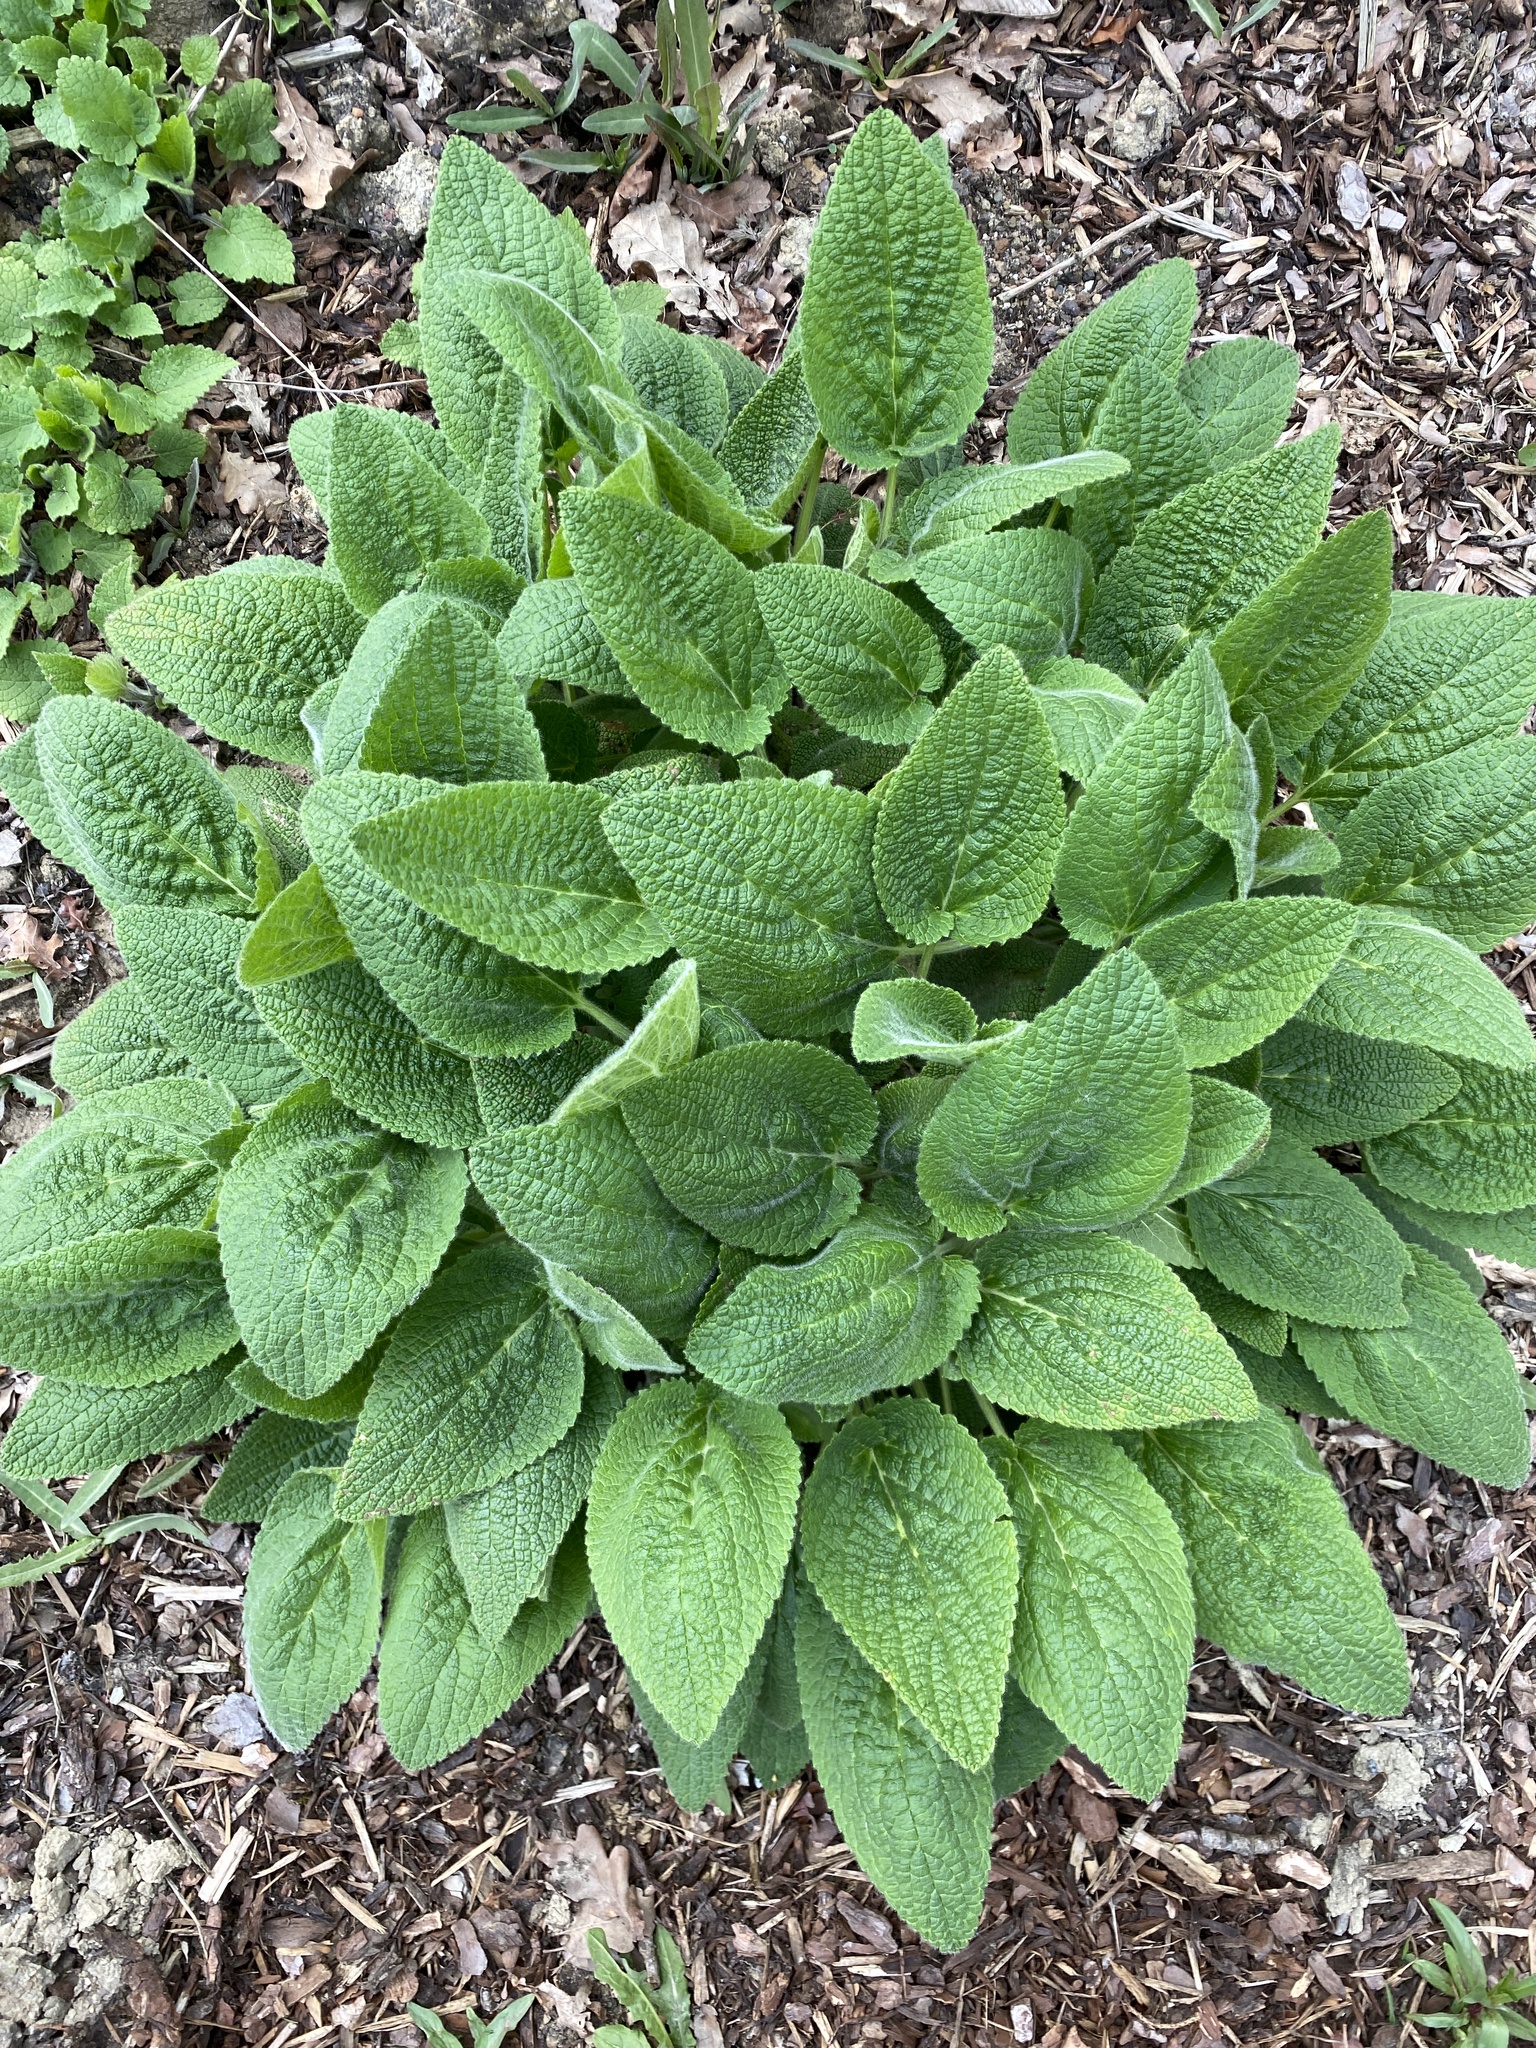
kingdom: Plantae
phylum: Tracheophyta
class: Magnoliopsida
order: Lamiales
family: Lamiaceae
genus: Stachys
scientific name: Stachys sylvatica
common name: Hedge woundwort
